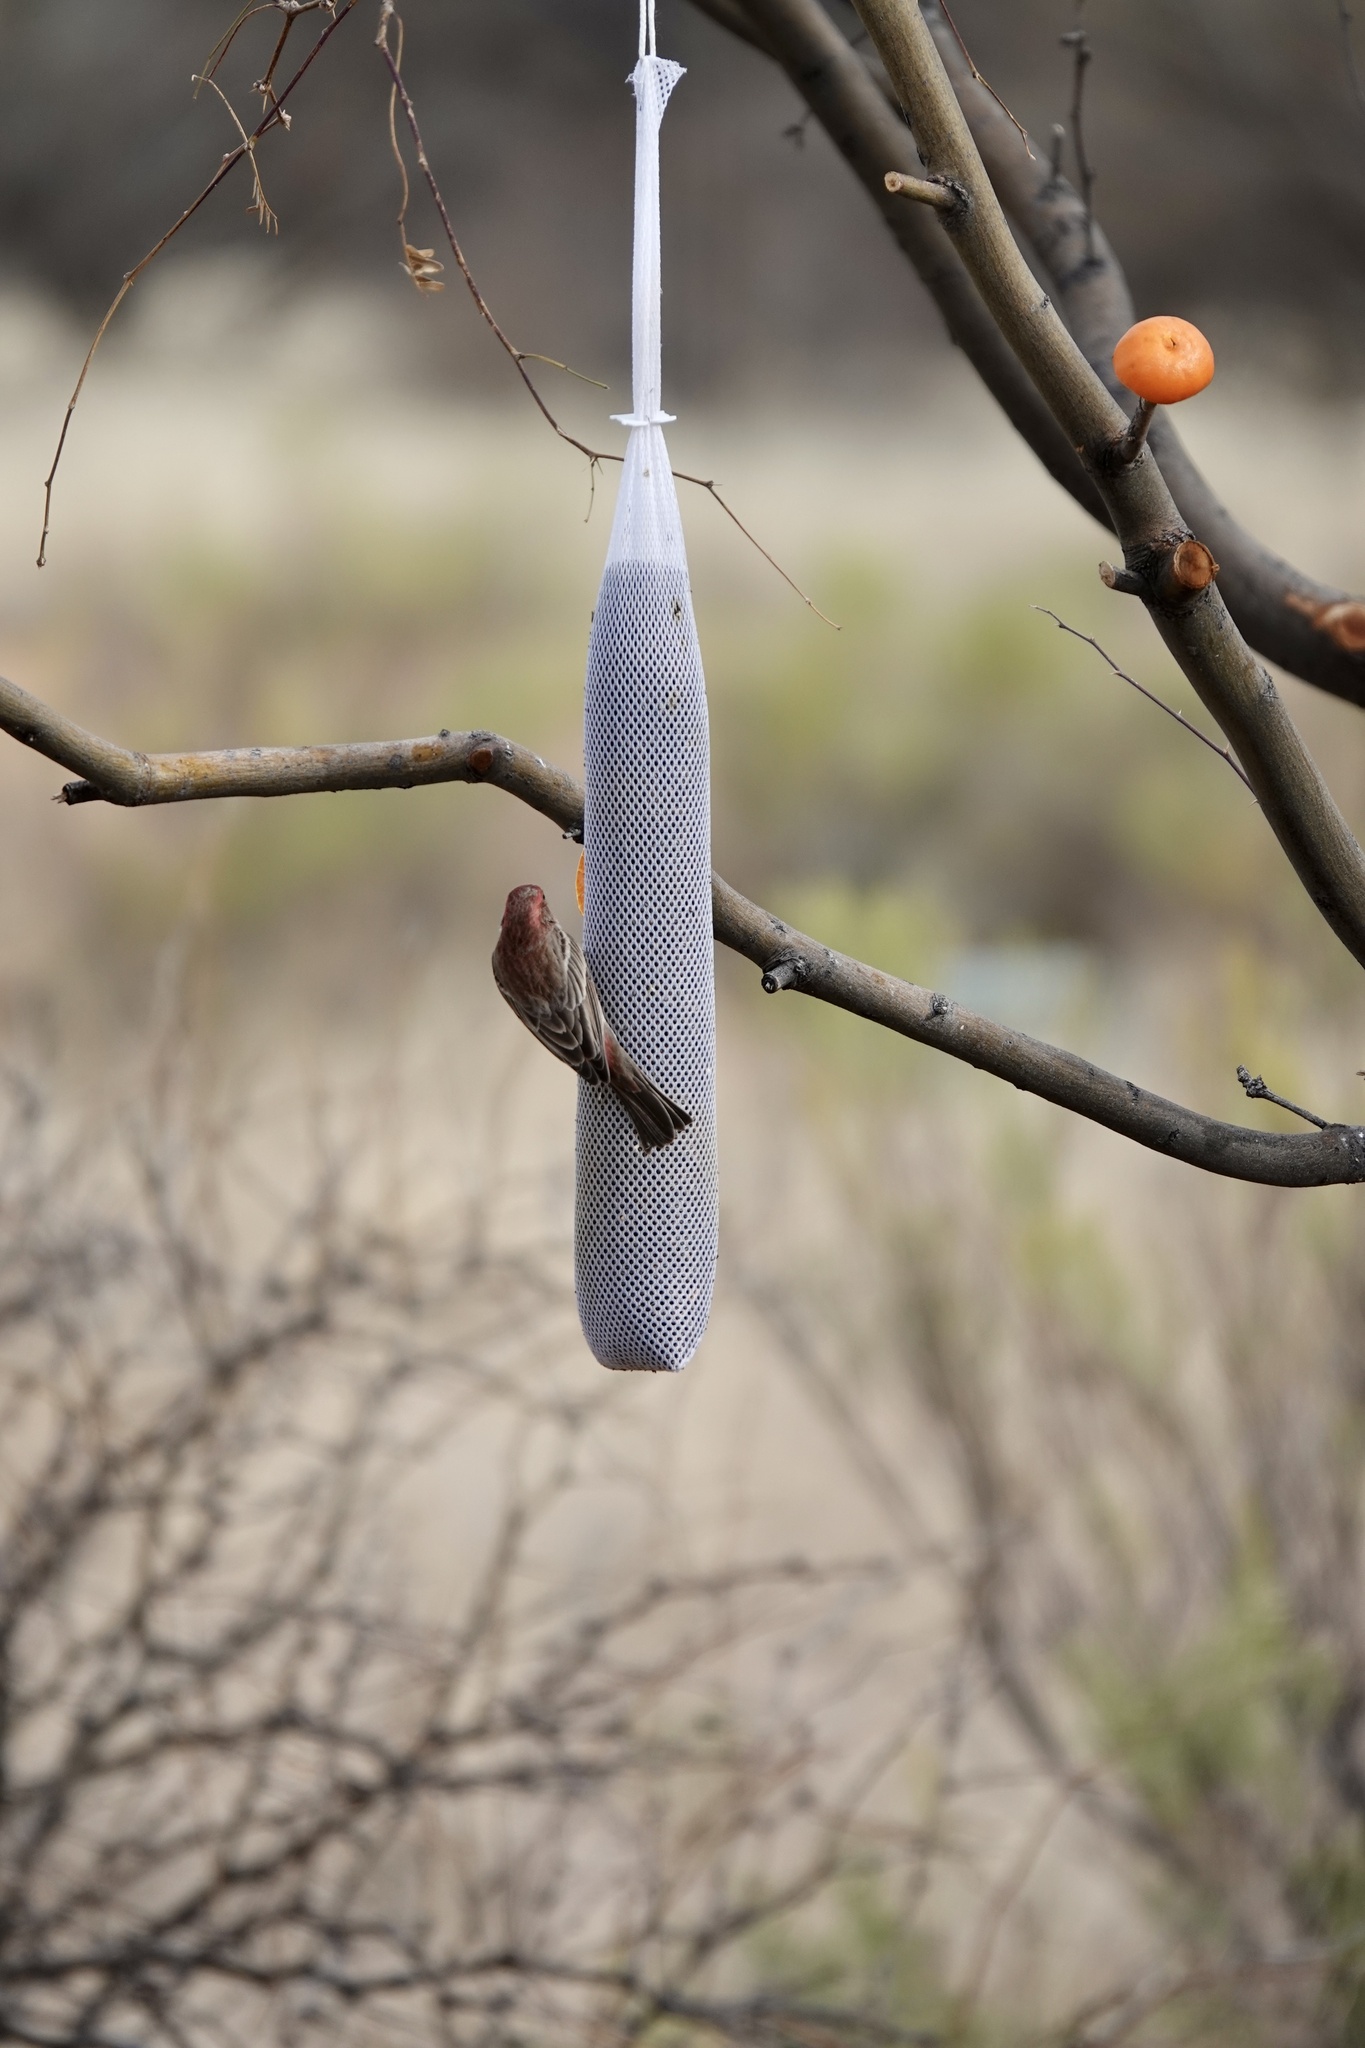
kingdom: Animalia
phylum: Chordata
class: Aves
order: Passeriformes
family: Fringillidae
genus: Haemorhous
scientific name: Haemorhous mexicanus
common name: House finch
